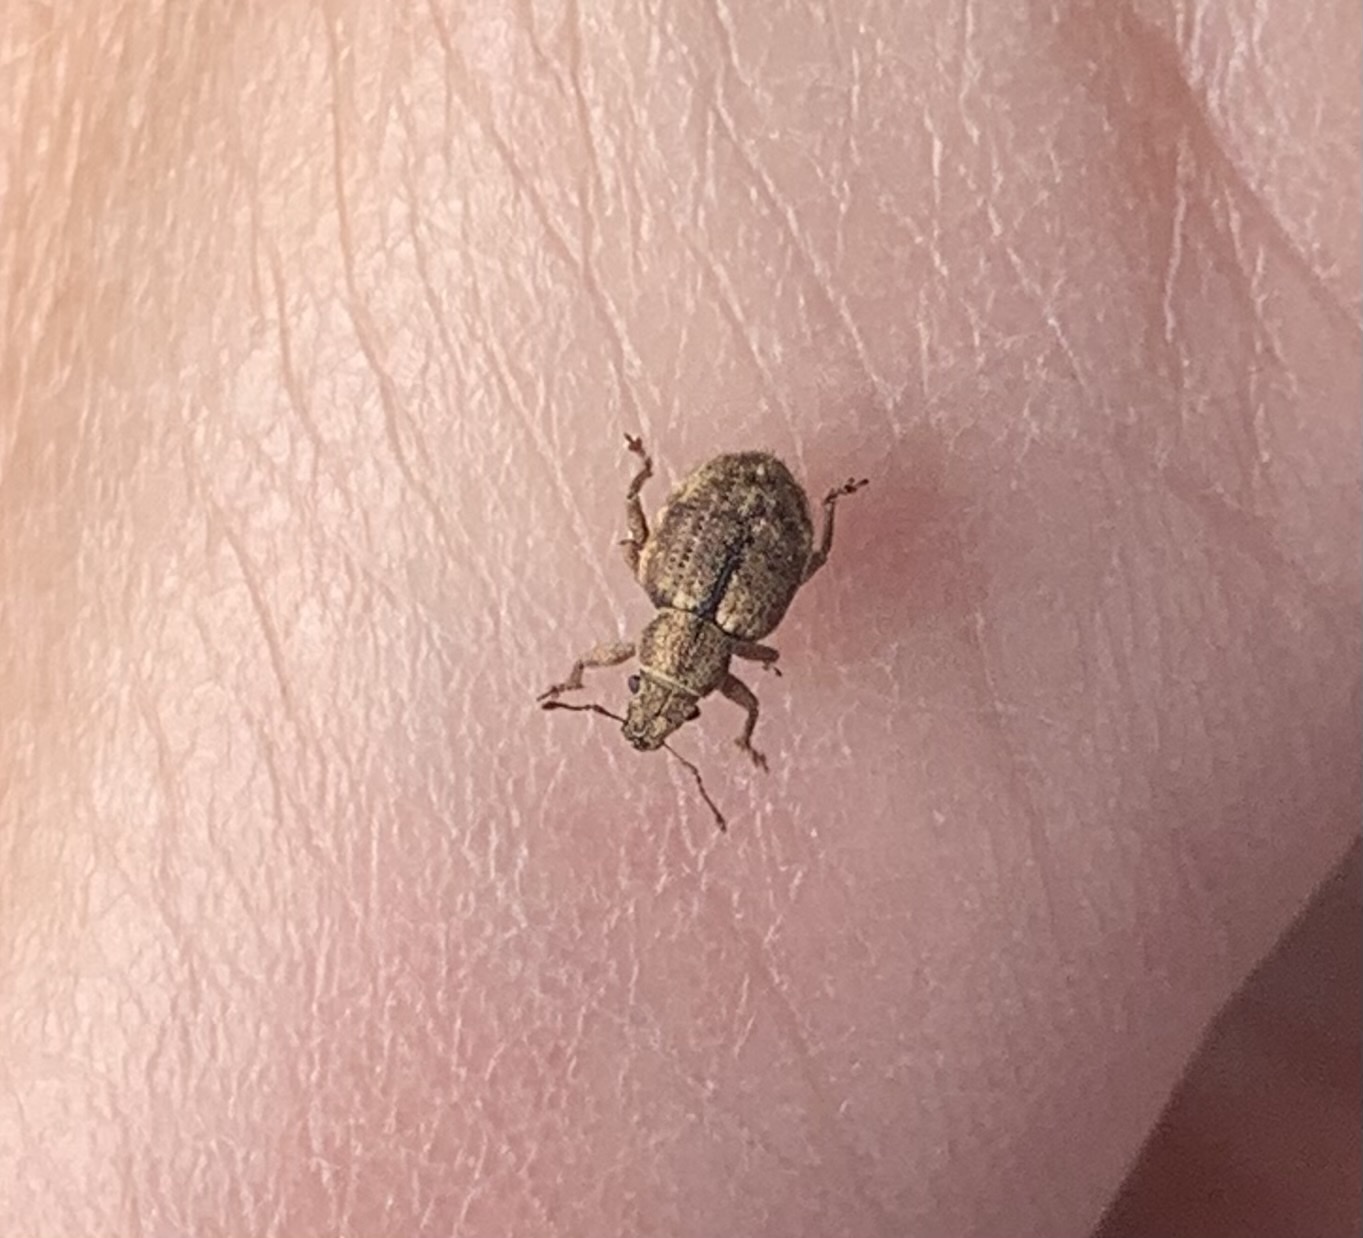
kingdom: Animalia
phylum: Arthropoda
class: Insecta
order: Coleoptera
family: Curculionidae
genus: Strophosoma
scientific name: Strophosoma melanogrammum
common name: Weevil
